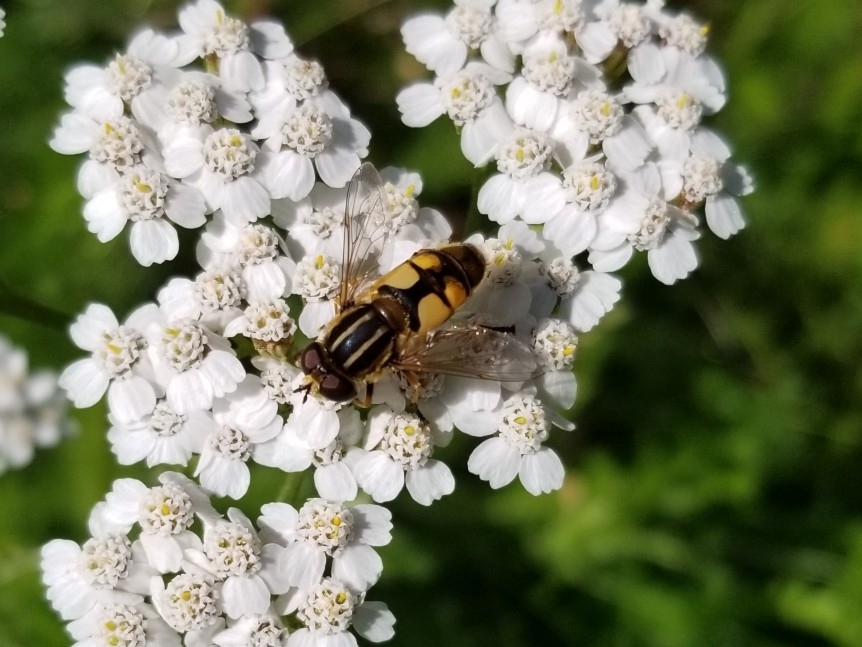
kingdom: Animalia
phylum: Arthropoda
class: Insecta
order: Diptera
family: Syrphidae
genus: Helophilus
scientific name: Helophilus hybridus
